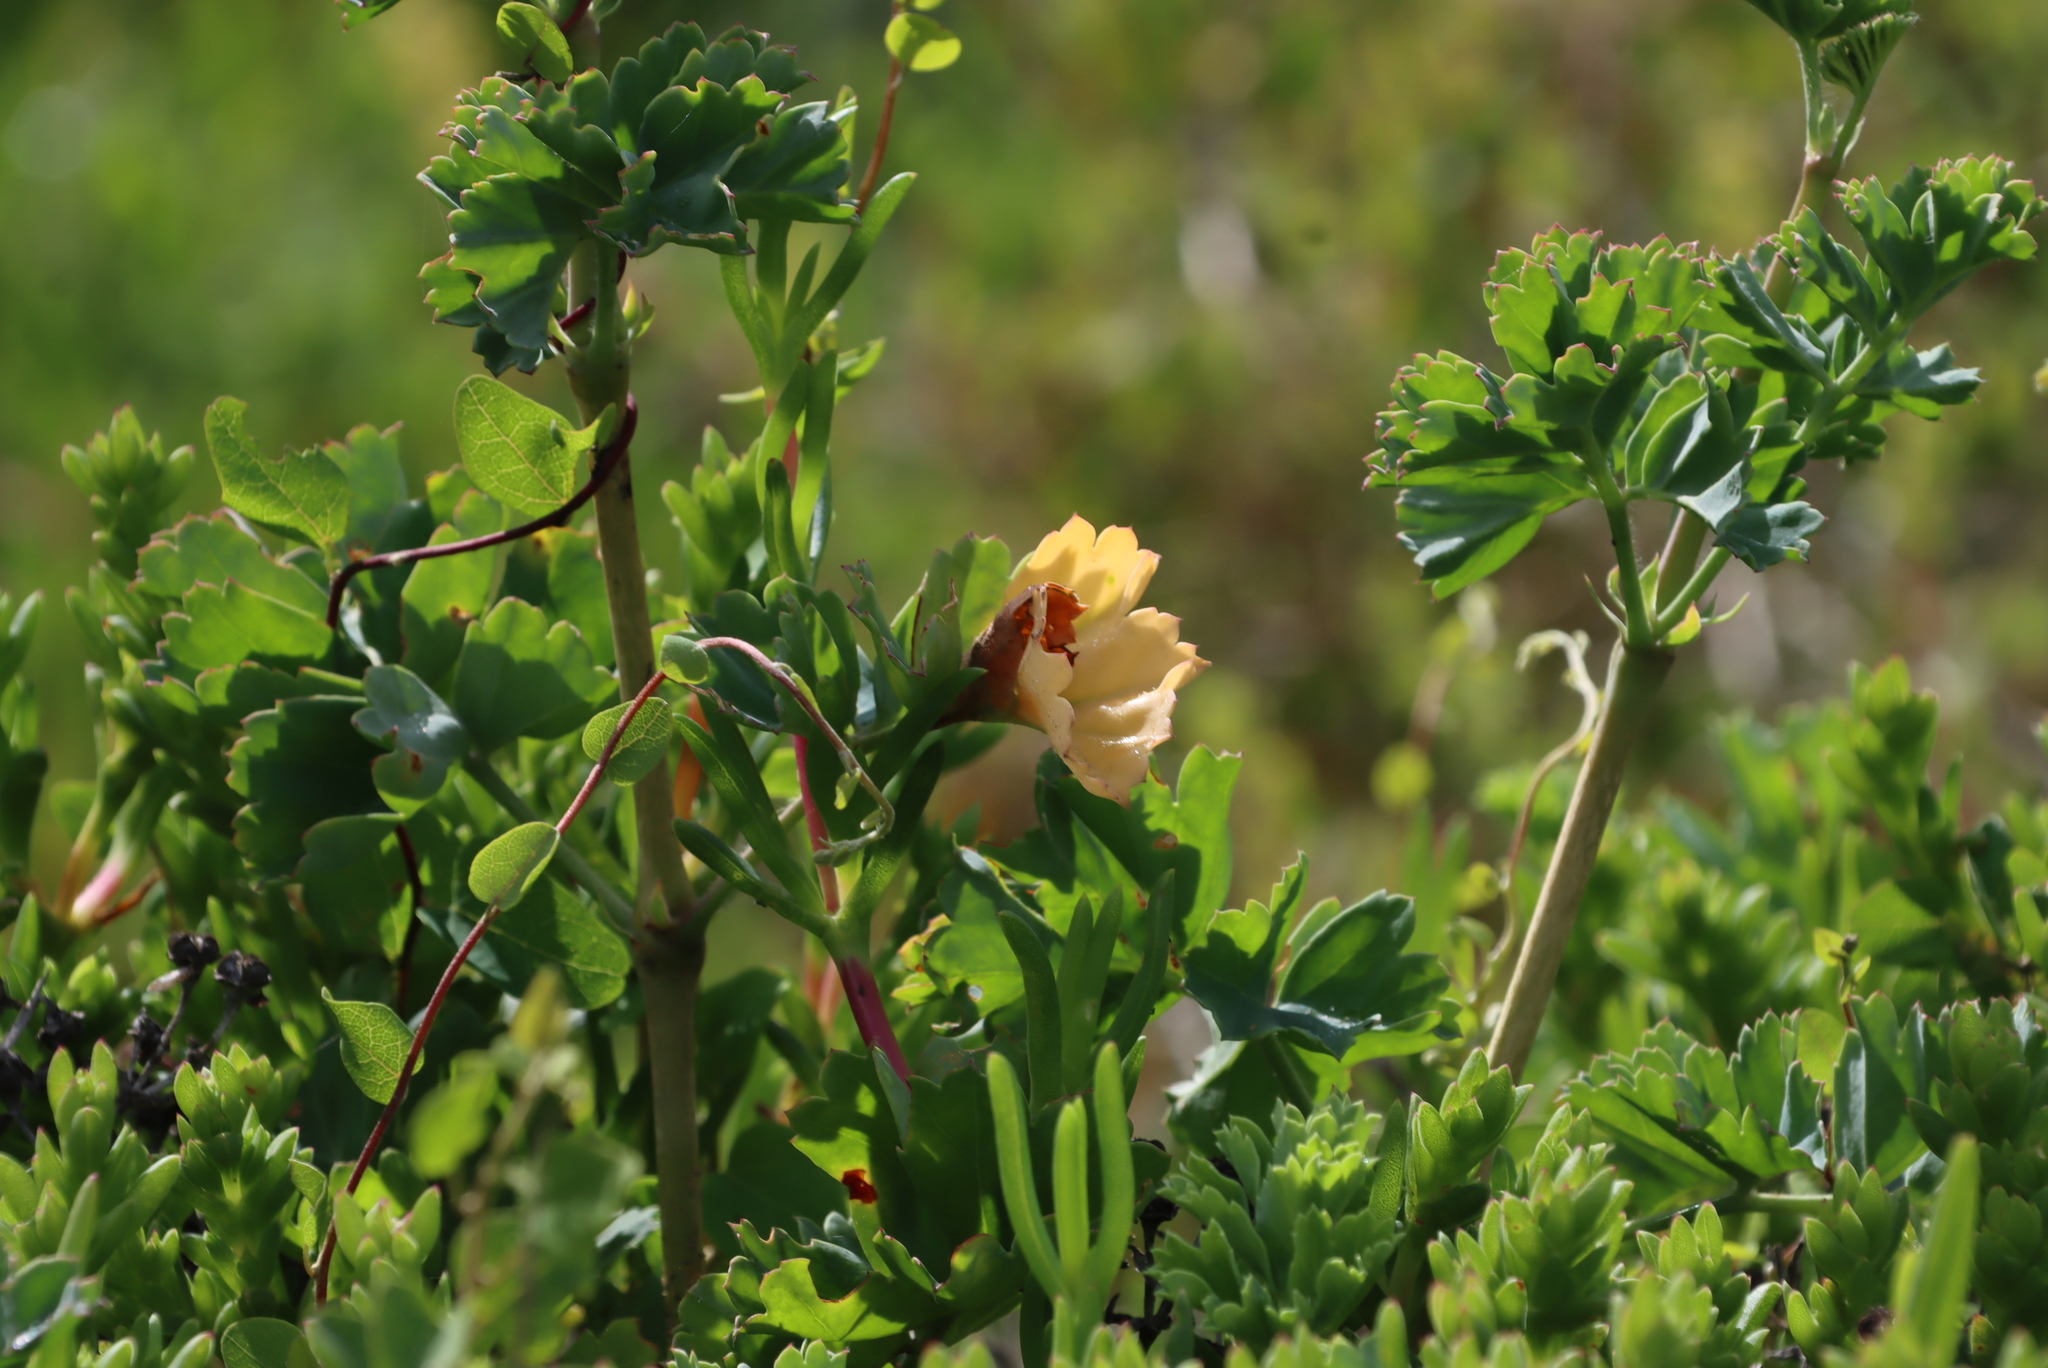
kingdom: Plantae
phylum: Tracheophyta
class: Magnoliopsida
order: Geraniales
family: Geraniaceae
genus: Pelargonium
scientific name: Pelargonium gibbosum
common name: Gouty geranium
